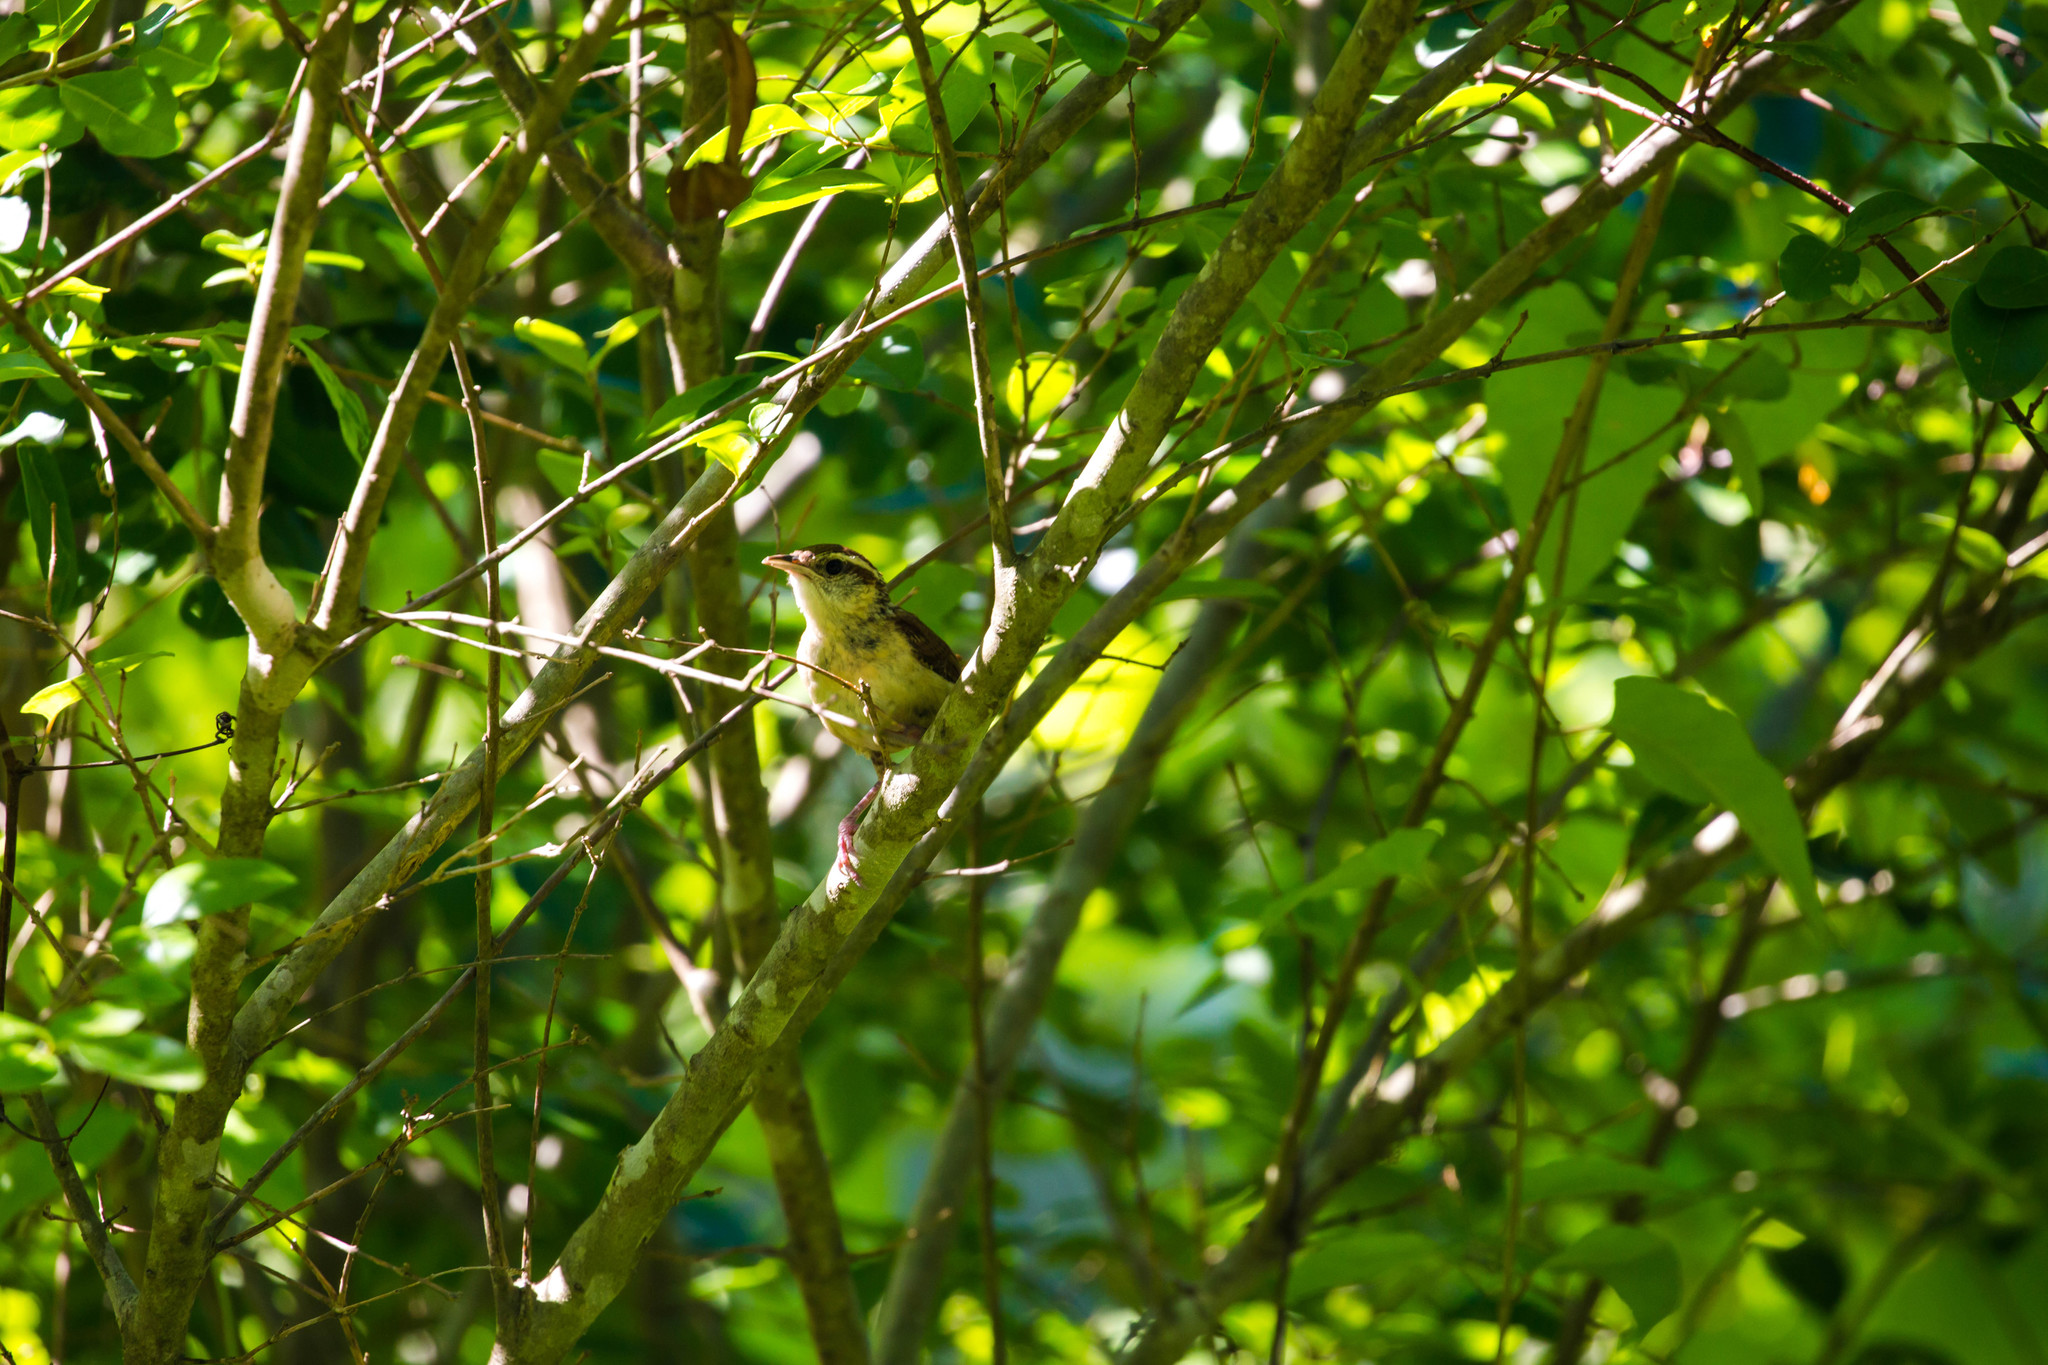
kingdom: Animalia
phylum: Chordata
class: Aves
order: Passeriformes
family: Troglodytidae
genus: Thryothorus
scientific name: Thryothorus ludovicianus
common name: Carolina wren
